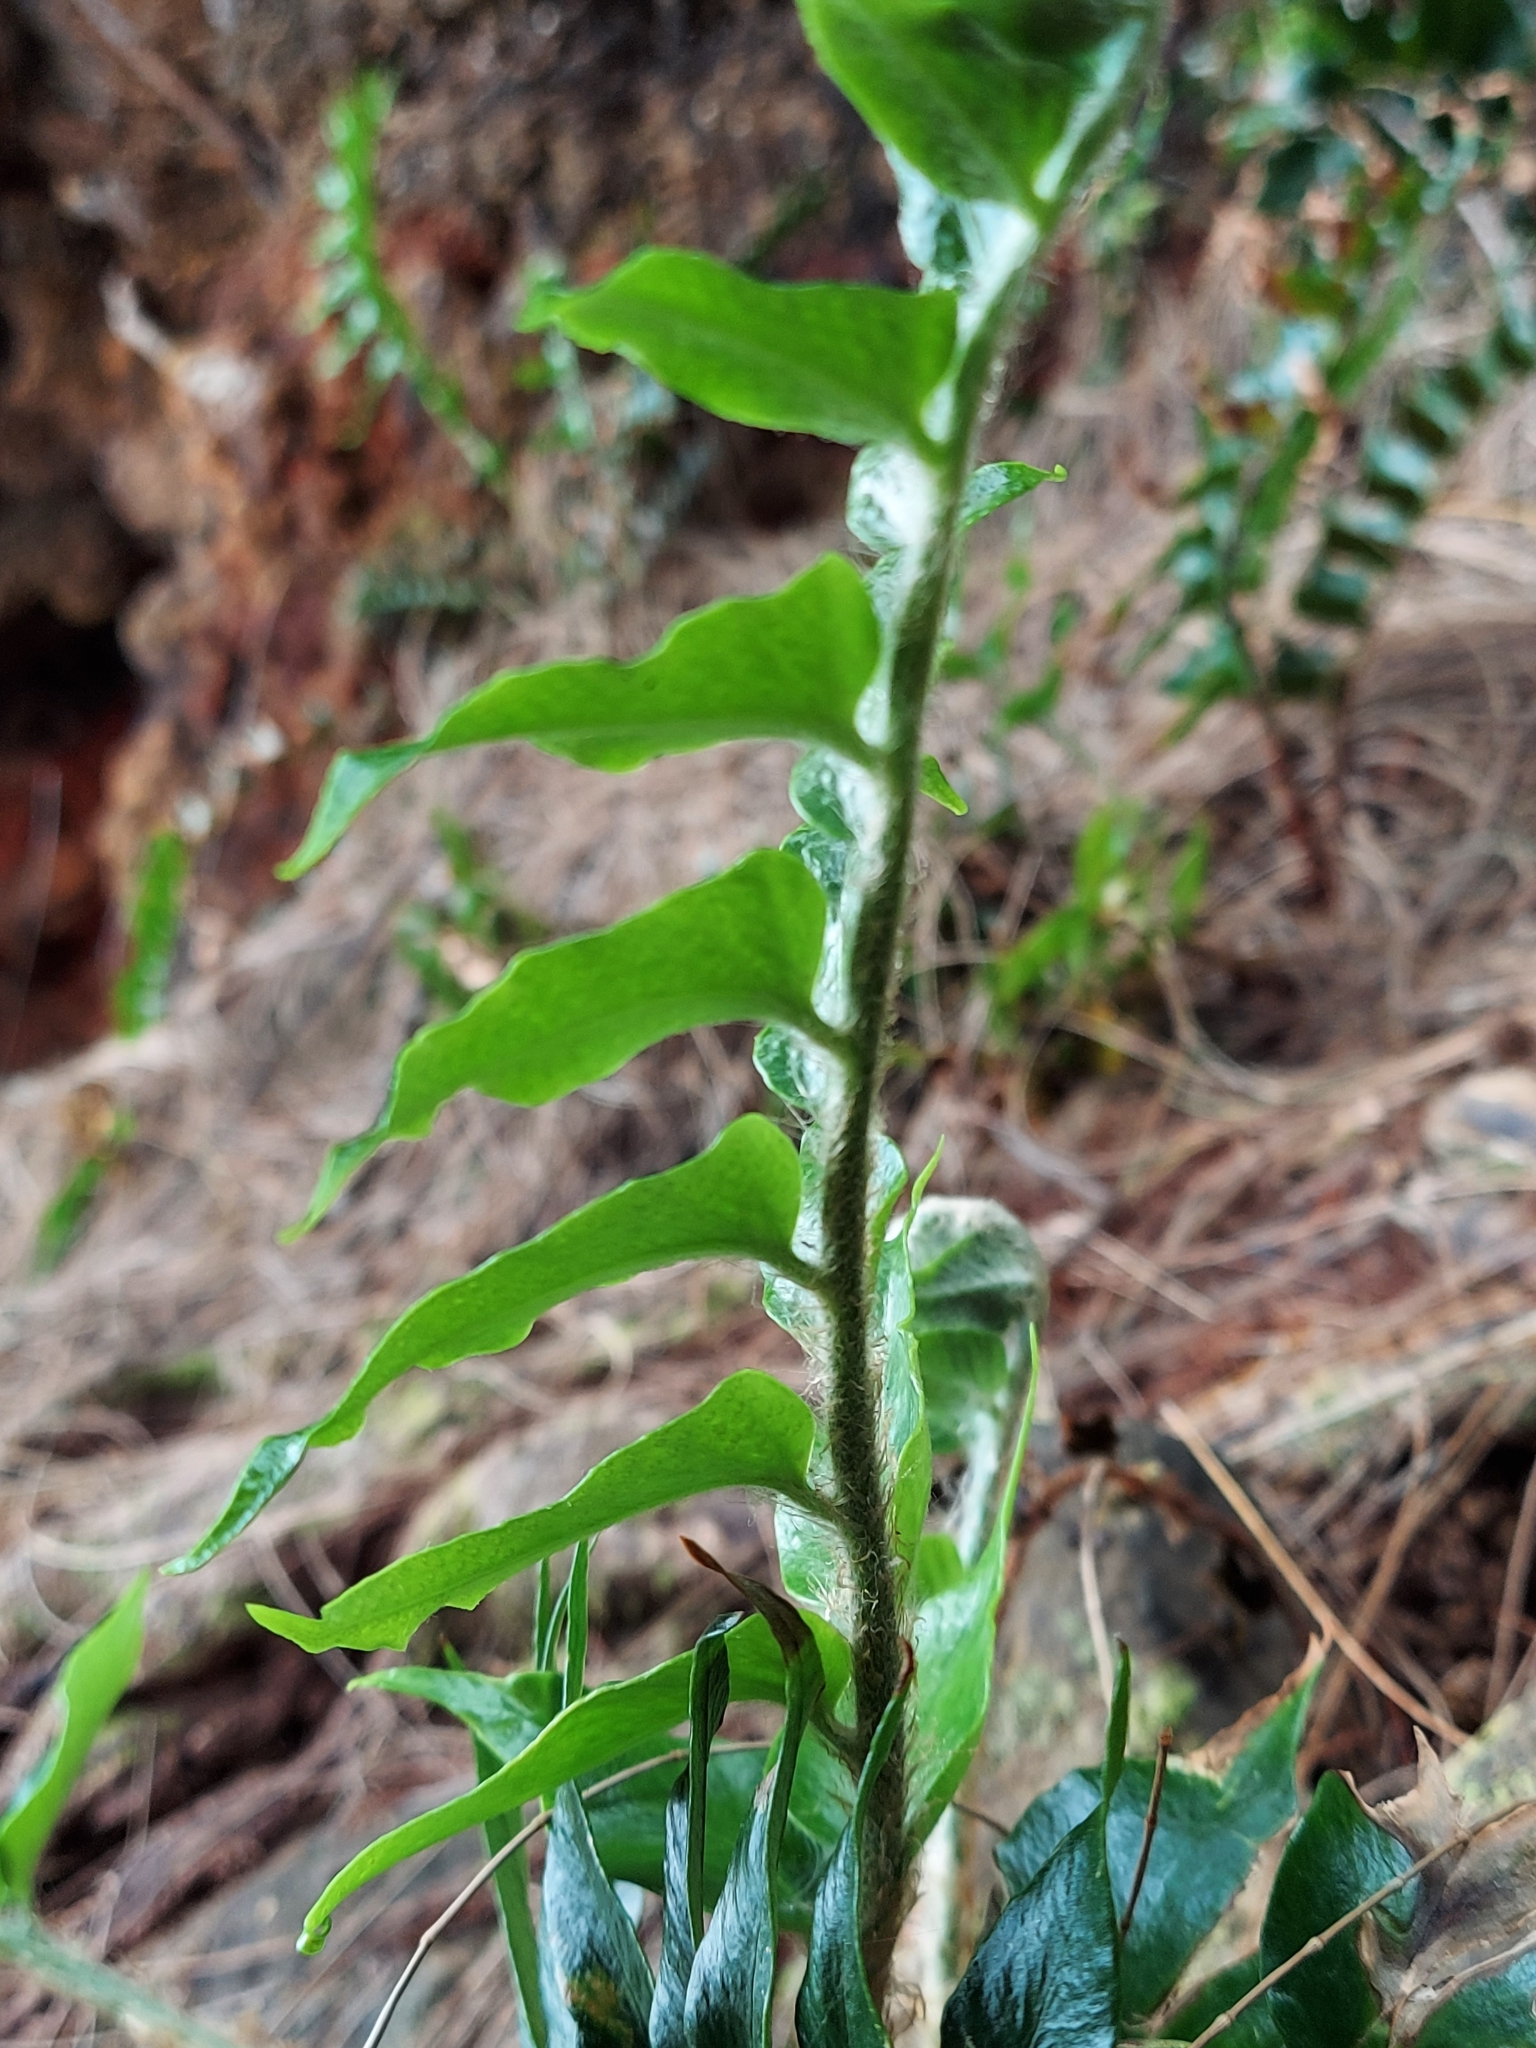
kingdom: Plantae
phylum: Tracheophyta
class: Polypodiopsida
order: Polypodiales
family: Dryopteridaceae
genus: Cyrtomium
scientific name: Cyrtomium falcatum
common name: House holly-fern
